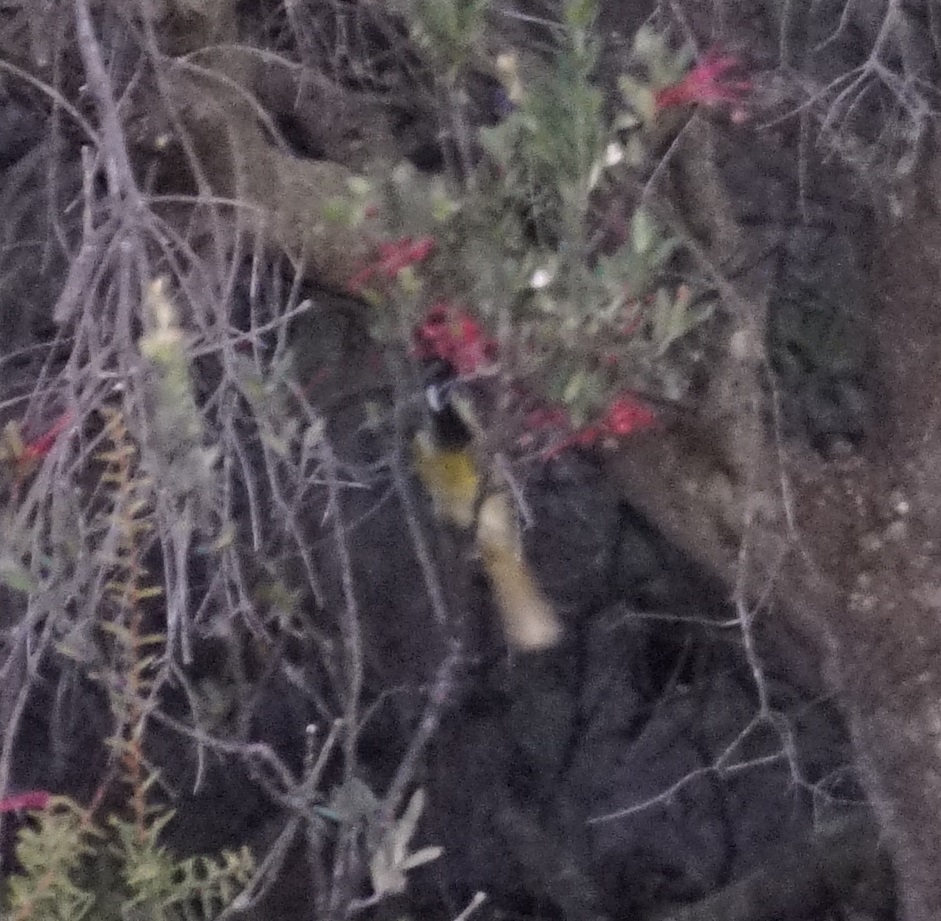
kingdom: Animalia
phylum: Chordata
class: Aves
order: Passeriformes
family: Meliphagidae
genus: Nesoptilotis
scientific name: Nesoptilotis leucotis
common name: White-eared honeyeater
